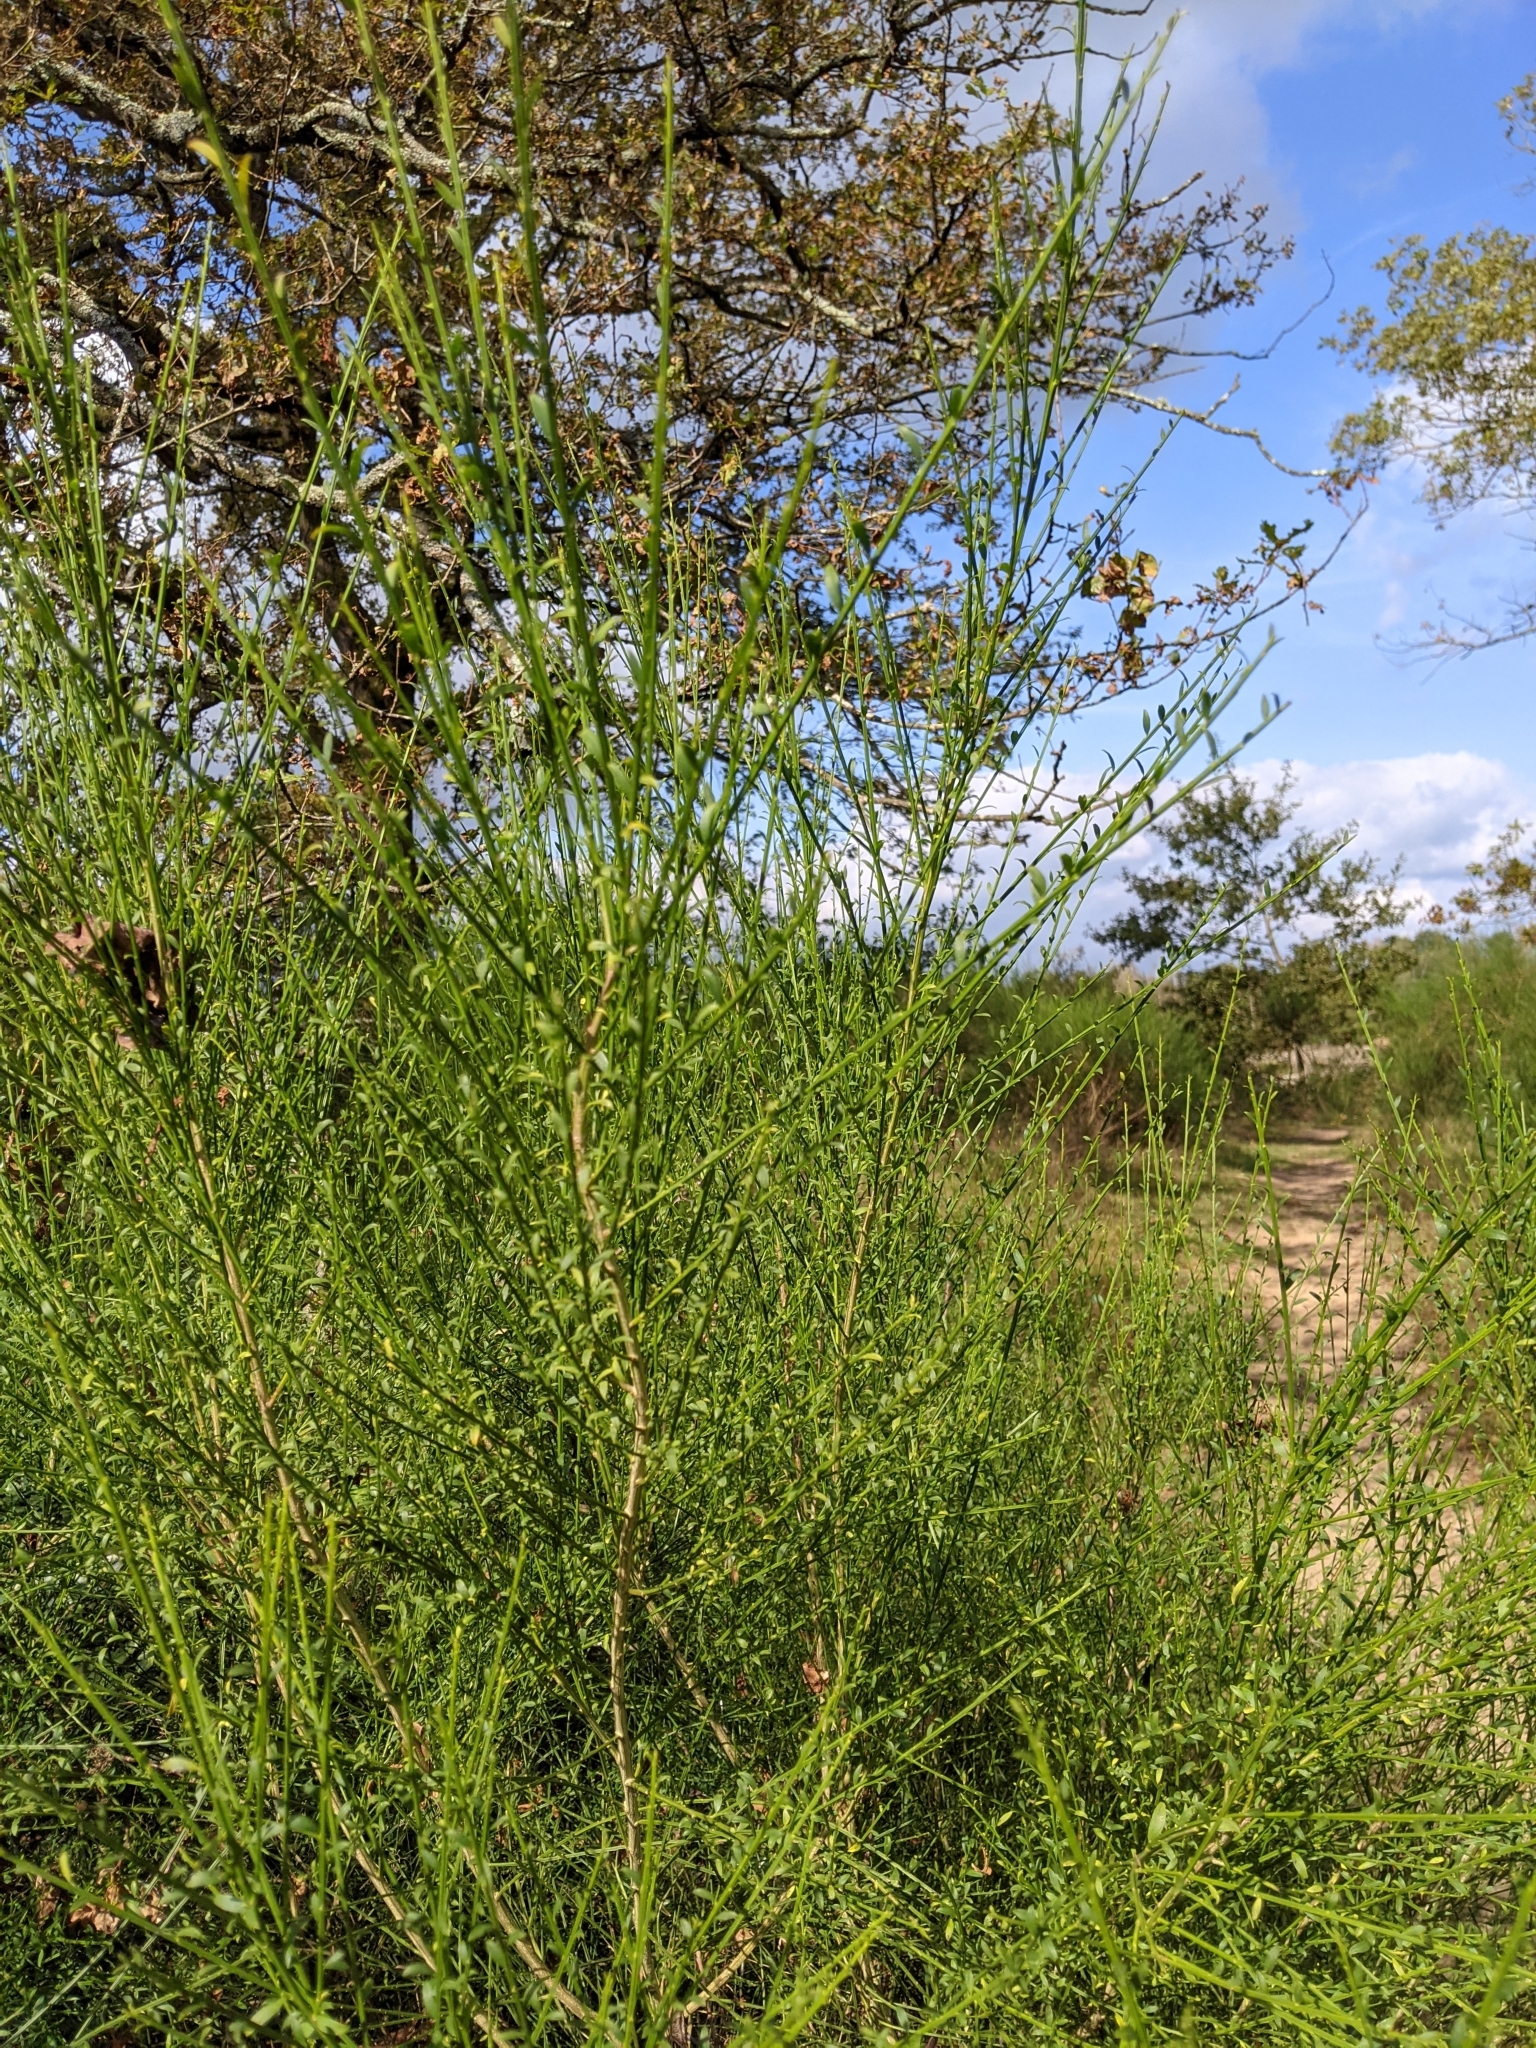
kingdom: Plantae
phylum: Tracheophyta
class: Magnoliopsida
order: Fabales
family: Fabaceae
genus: Cytisus
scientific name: Cytisus scoparius
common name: Scotch broom
